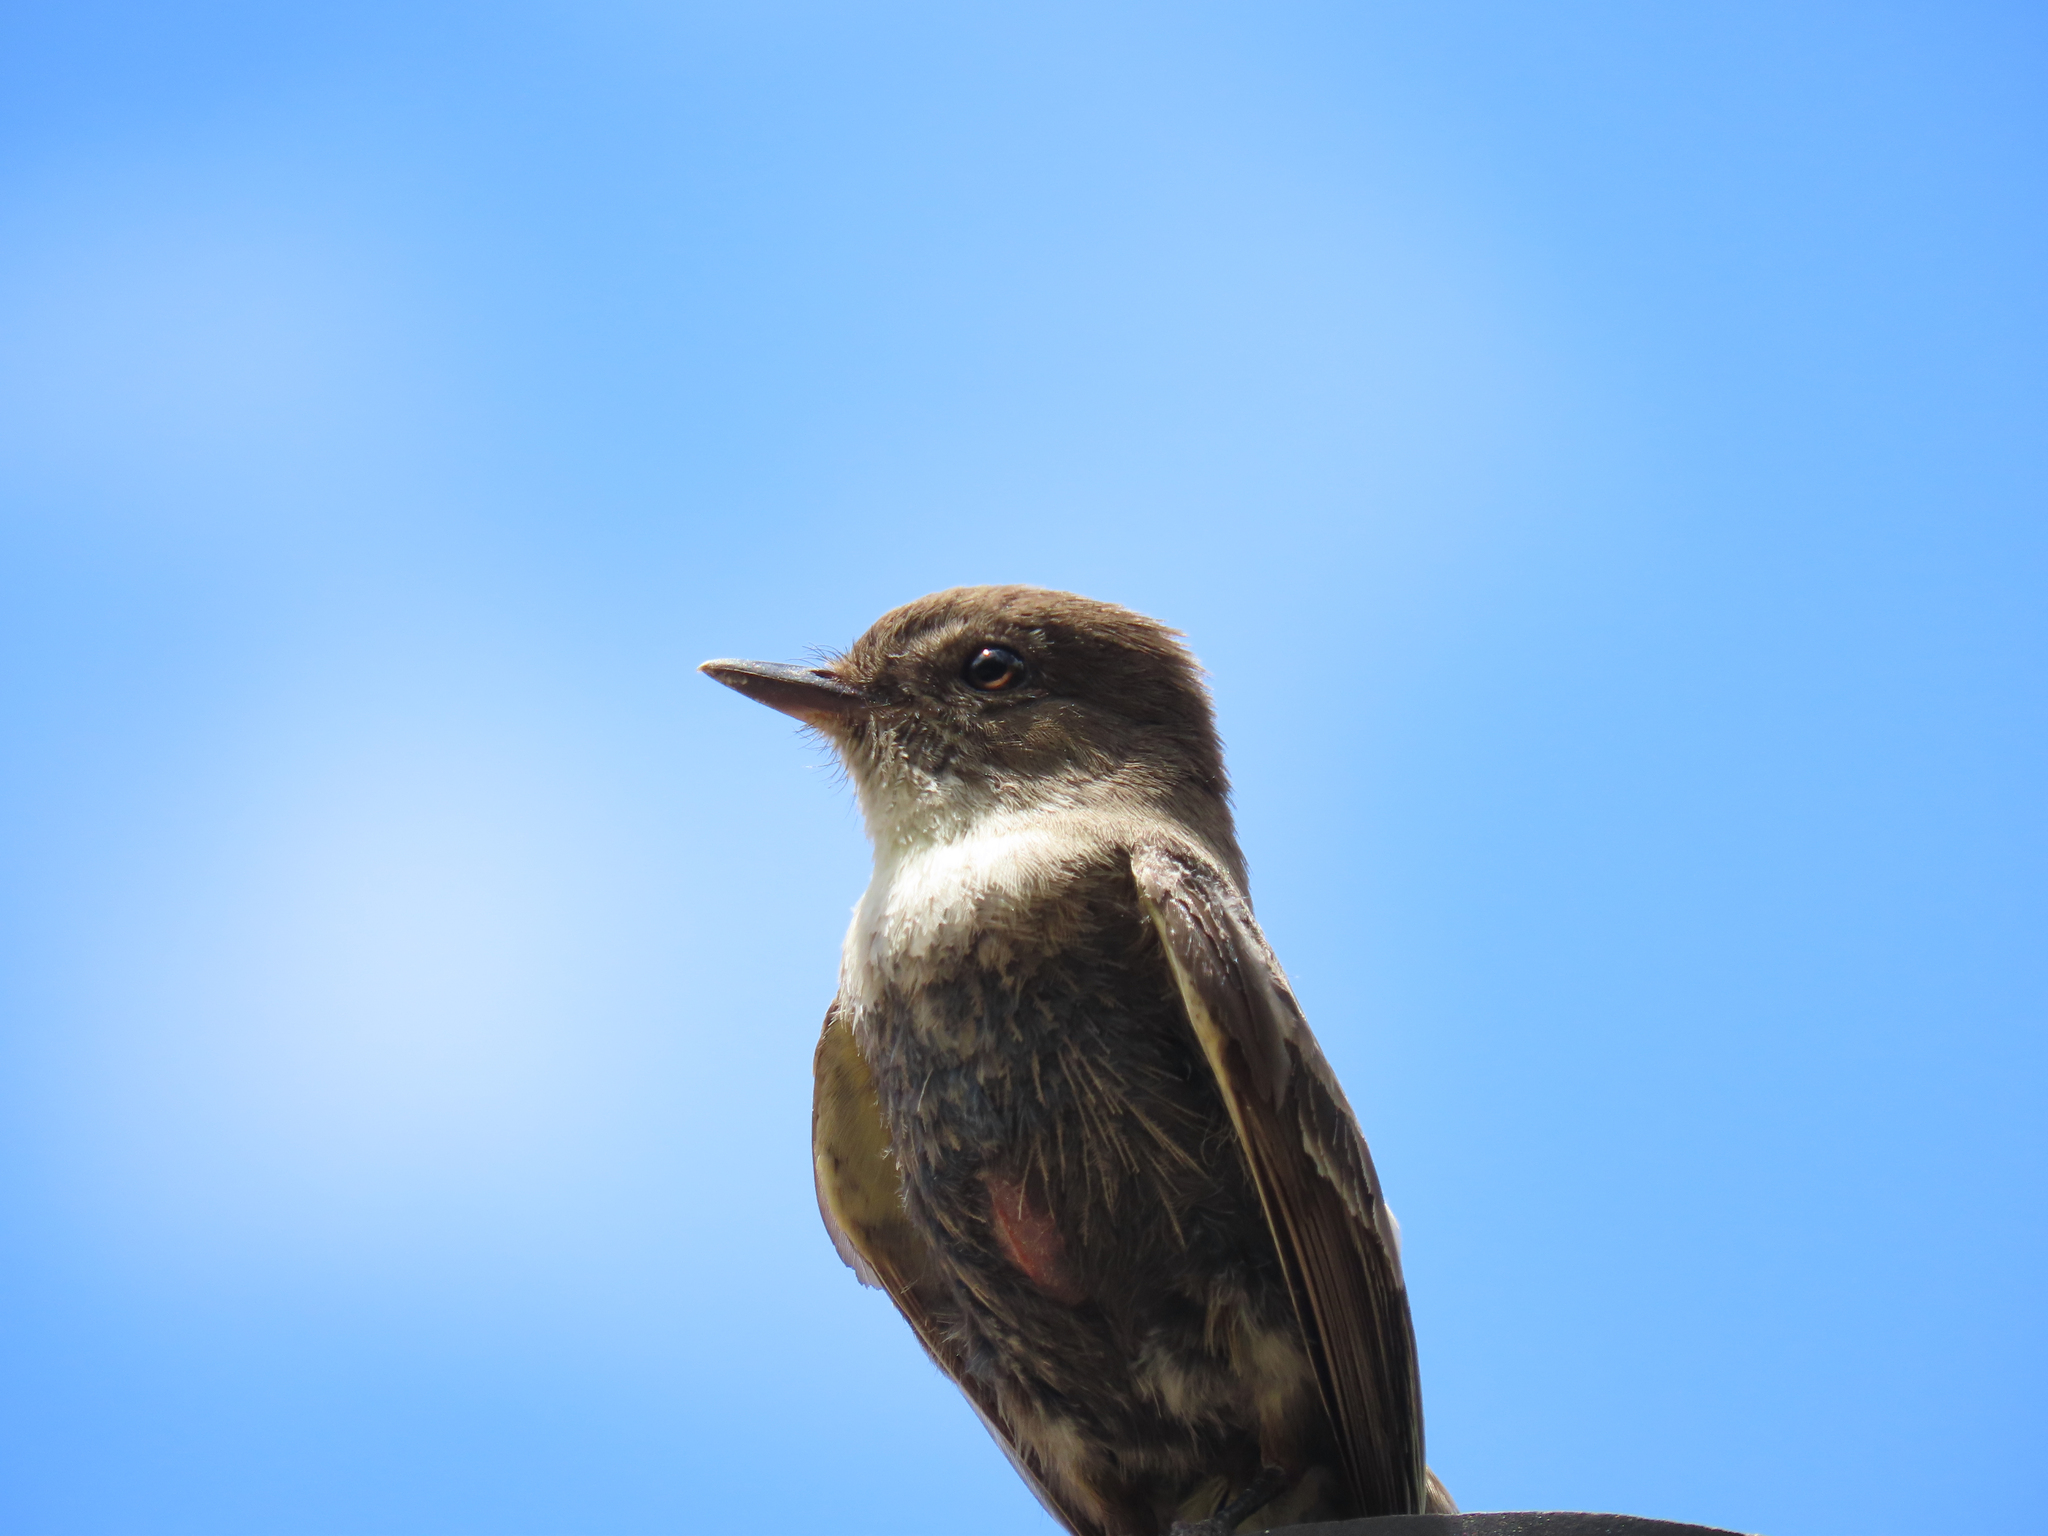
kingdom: Animalia
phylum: Chordata
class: Aves
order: Passeriformes
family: Tyrannidae
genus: Sayornis
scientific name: Sayornis phoebe
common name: Eastern phoebe
